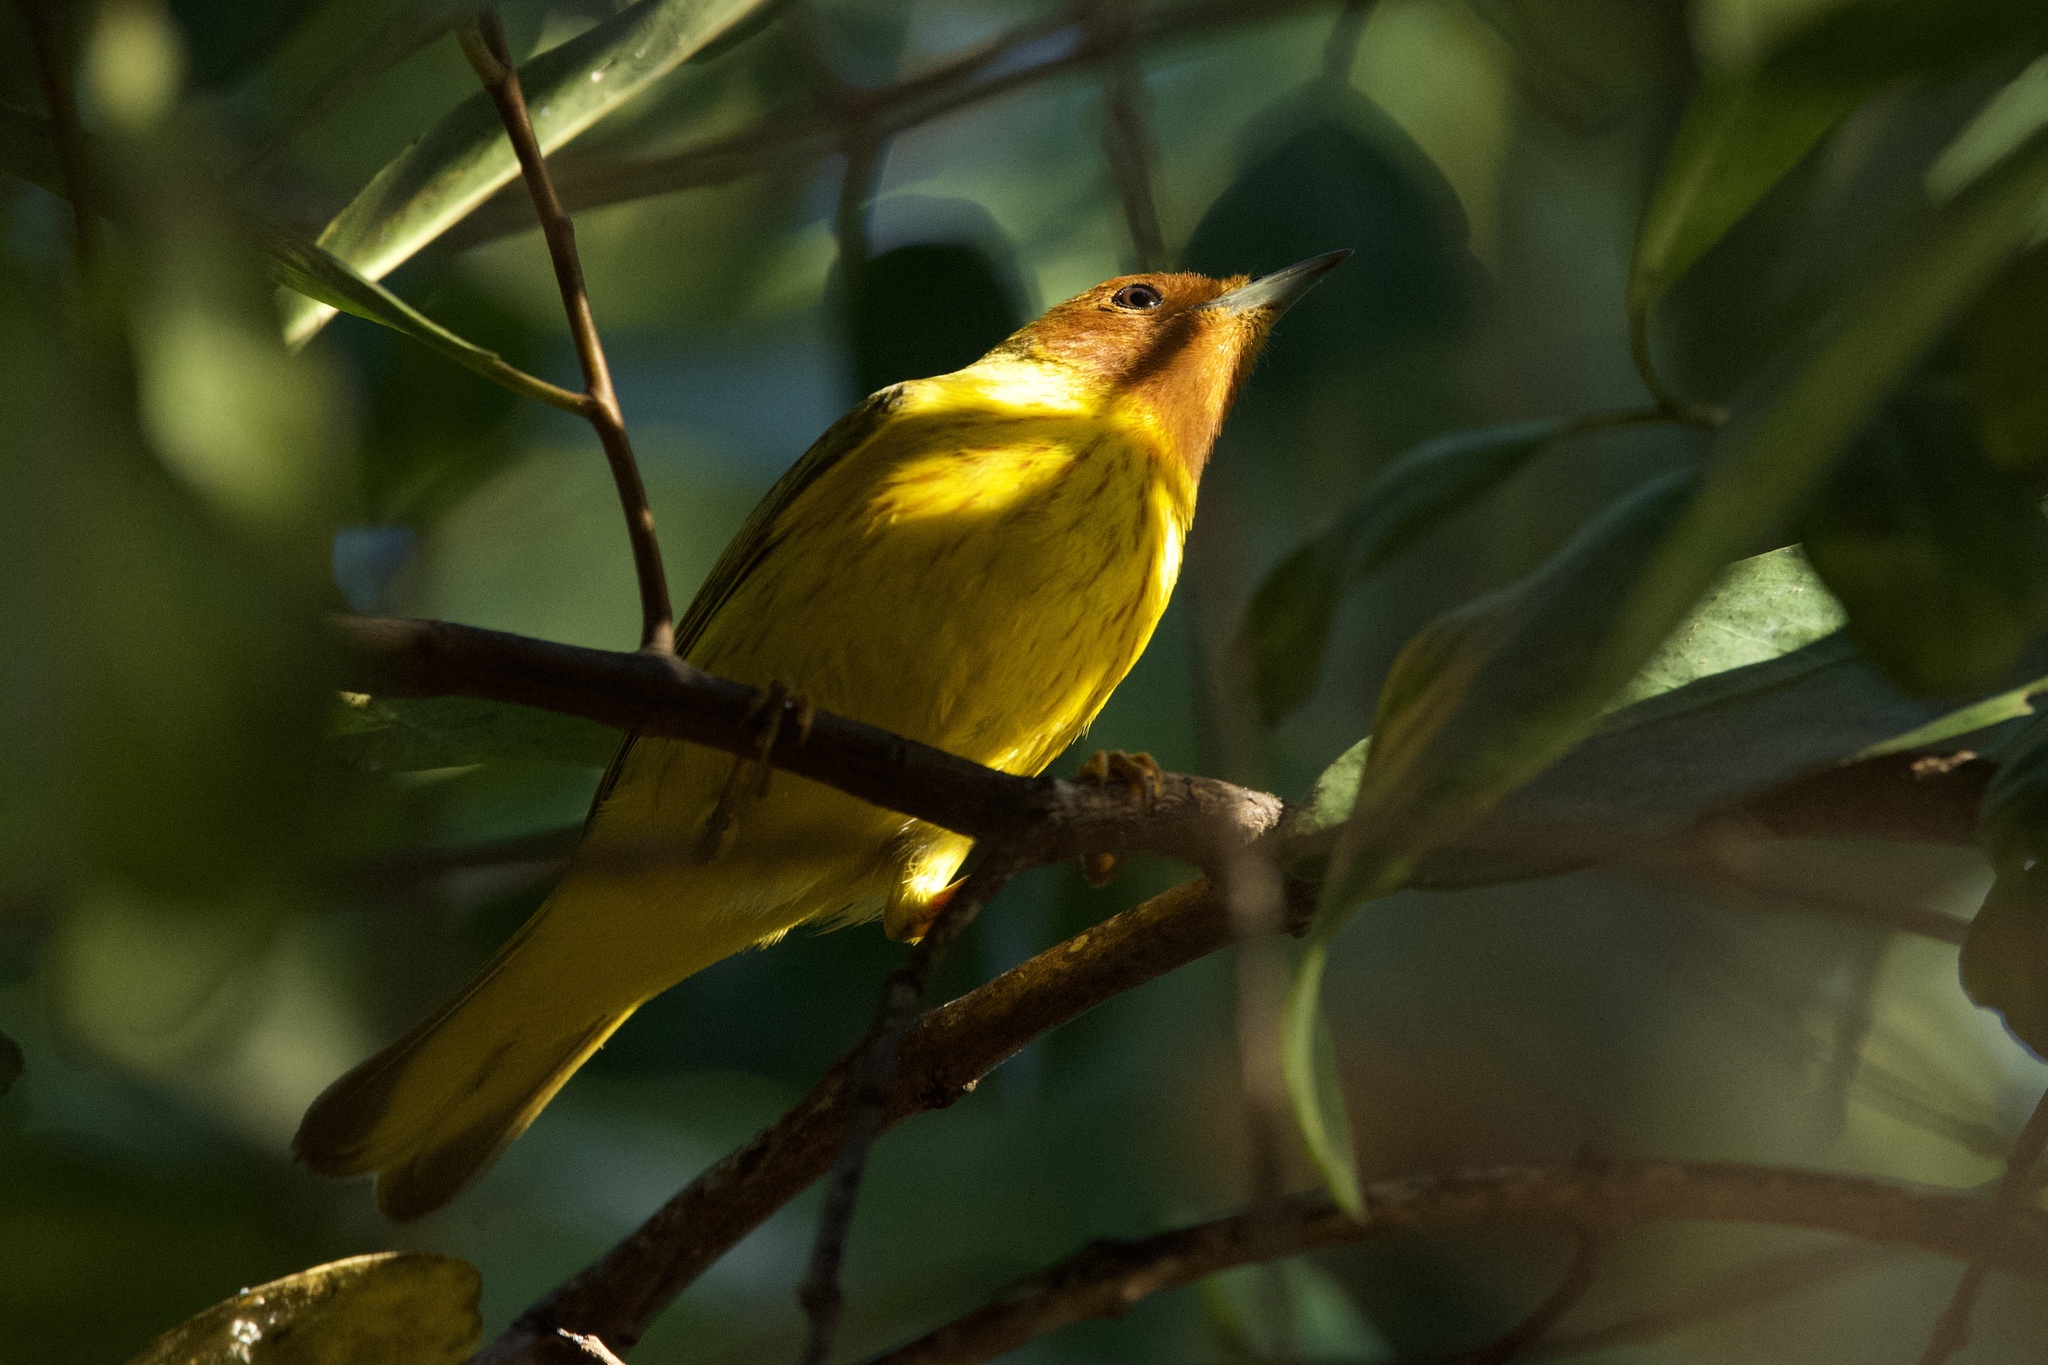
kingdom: Animalia
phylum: Chordata
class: Aves
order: Passeriformes
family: Parulidae
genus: Setophaga
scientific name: Setophaga petechia
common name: Yellow warbler
